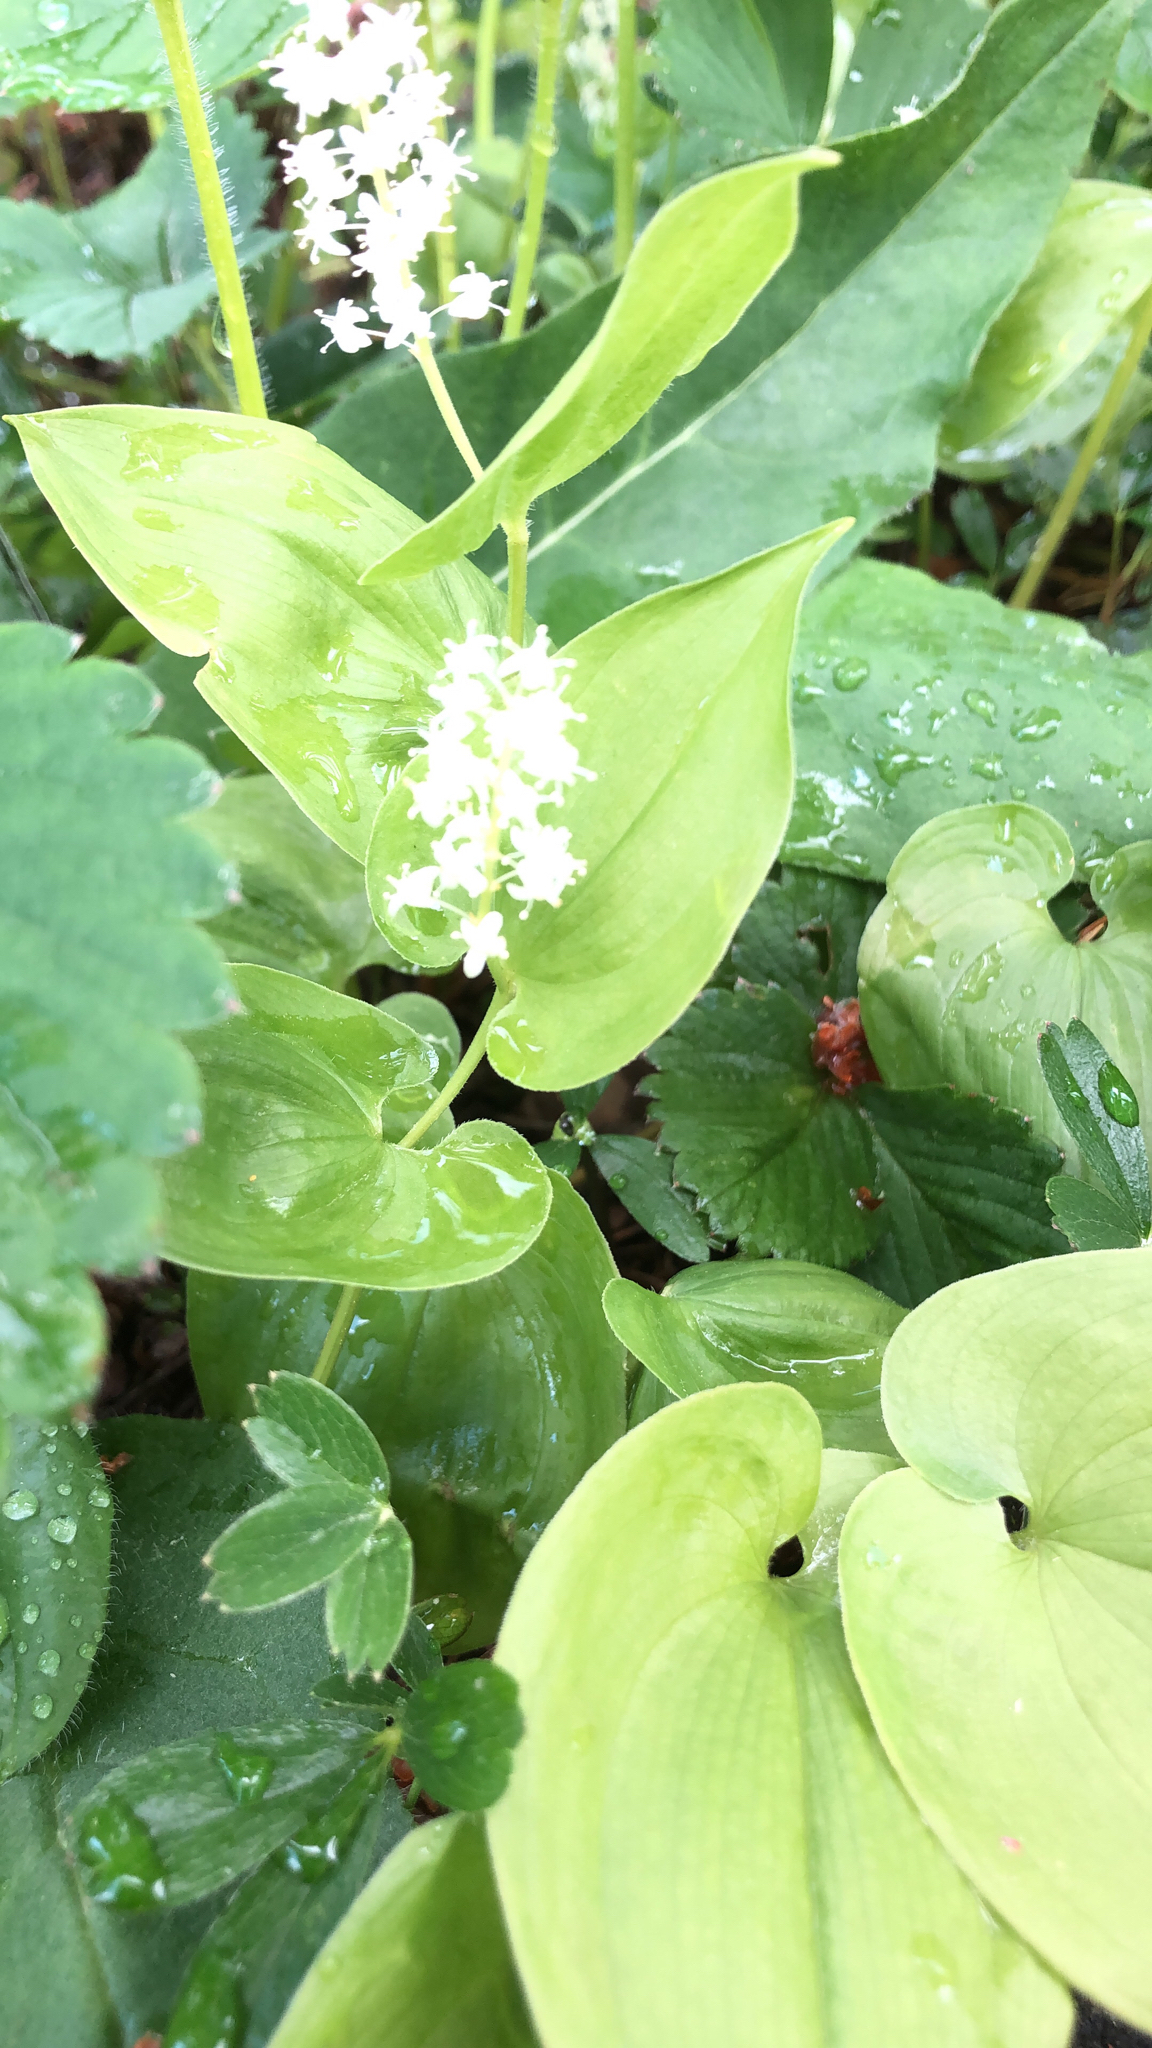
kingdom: Plantae
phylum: Tracheophyta
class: Liliopsida
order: Asparagales
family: Asparagaceae
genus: Maianthemum
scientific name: Maianthemum bifolium
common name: May lily
